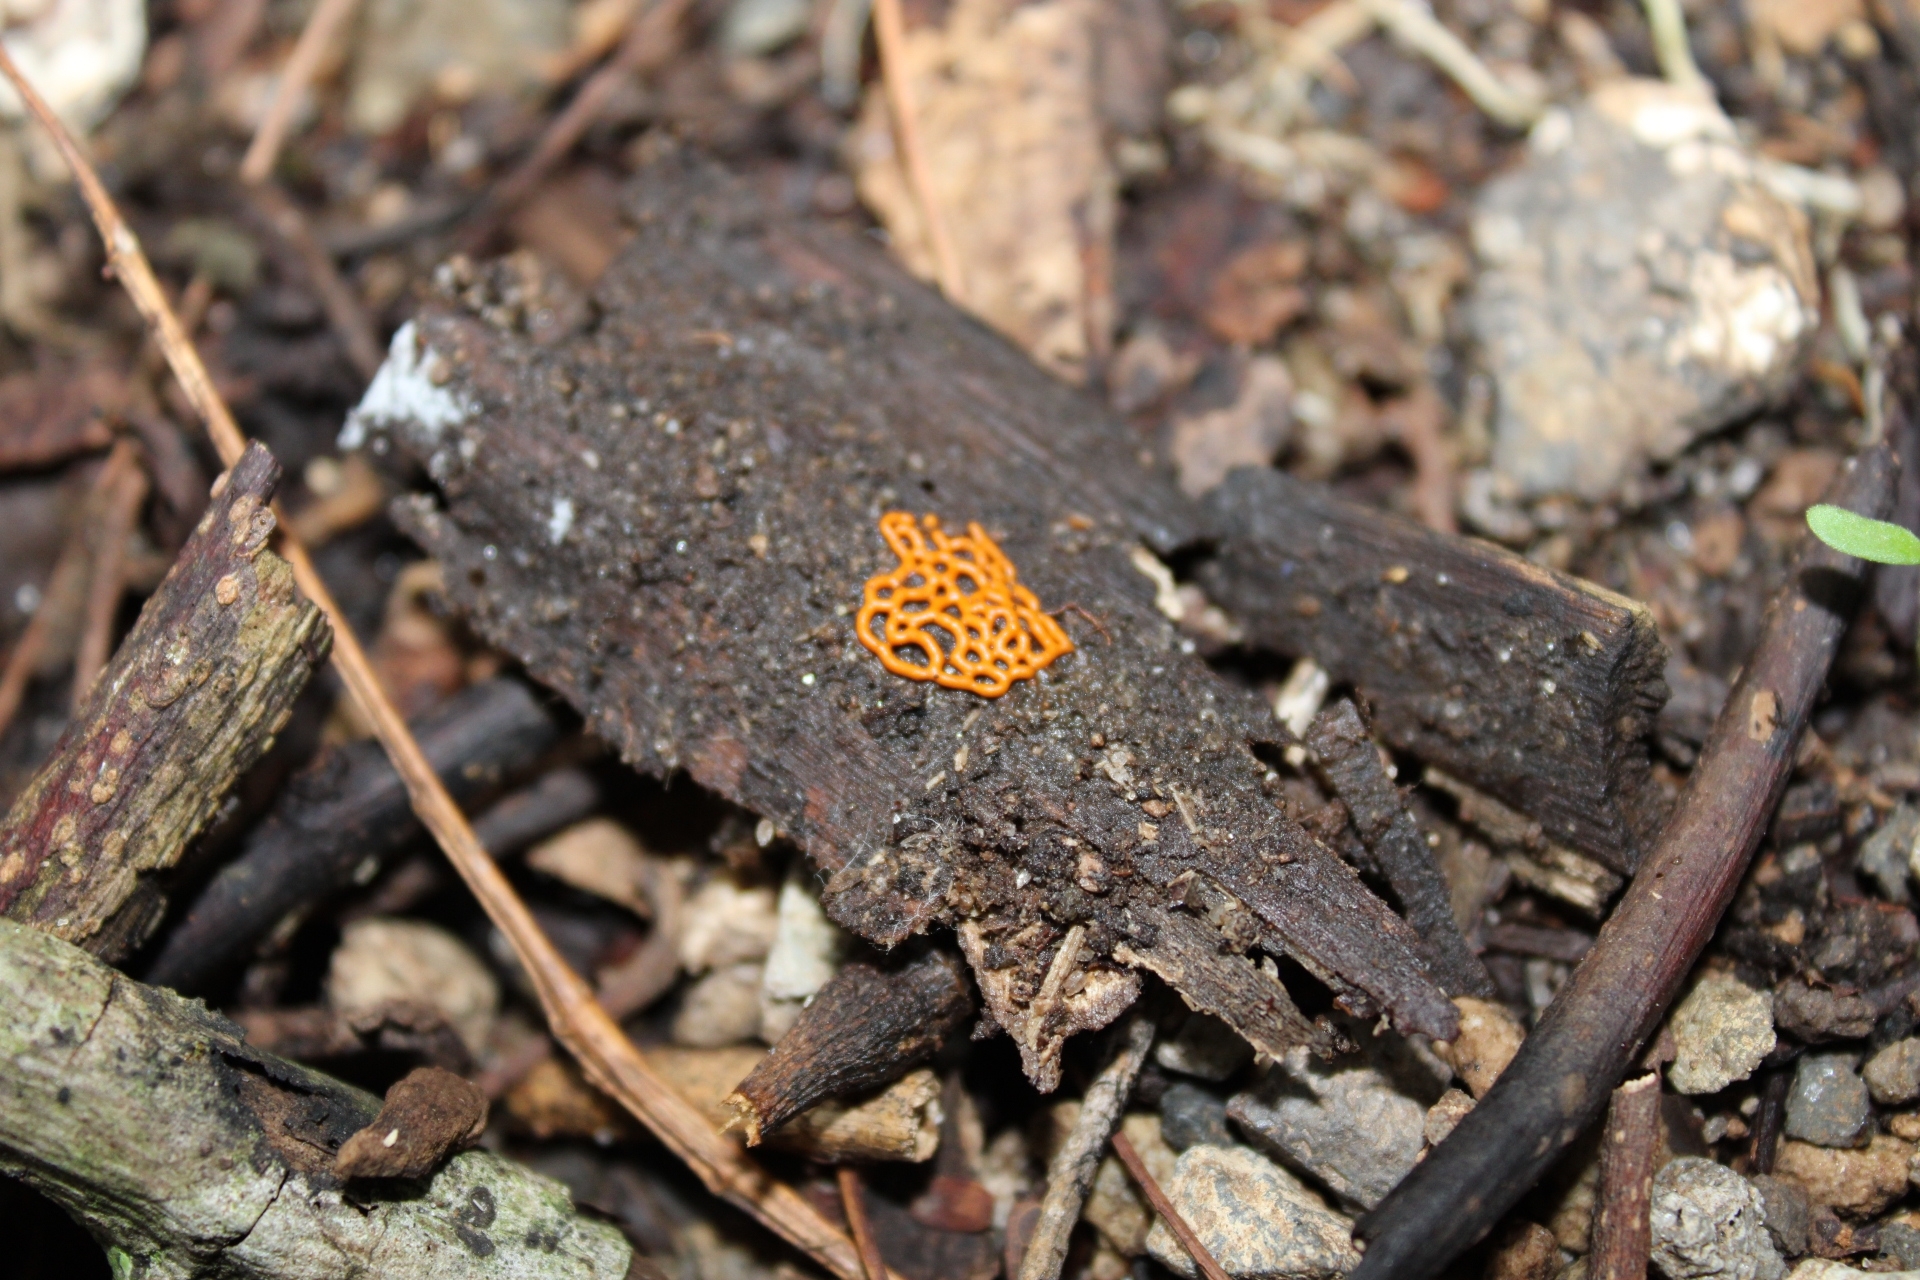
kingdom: Protozoa
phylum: Mycetozoa
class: Myxomycetes
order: Trichiales
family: Arcyriaceae
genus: Hemitrichia
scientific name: Hemitrichia serpula
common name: Pretzel slime mold
